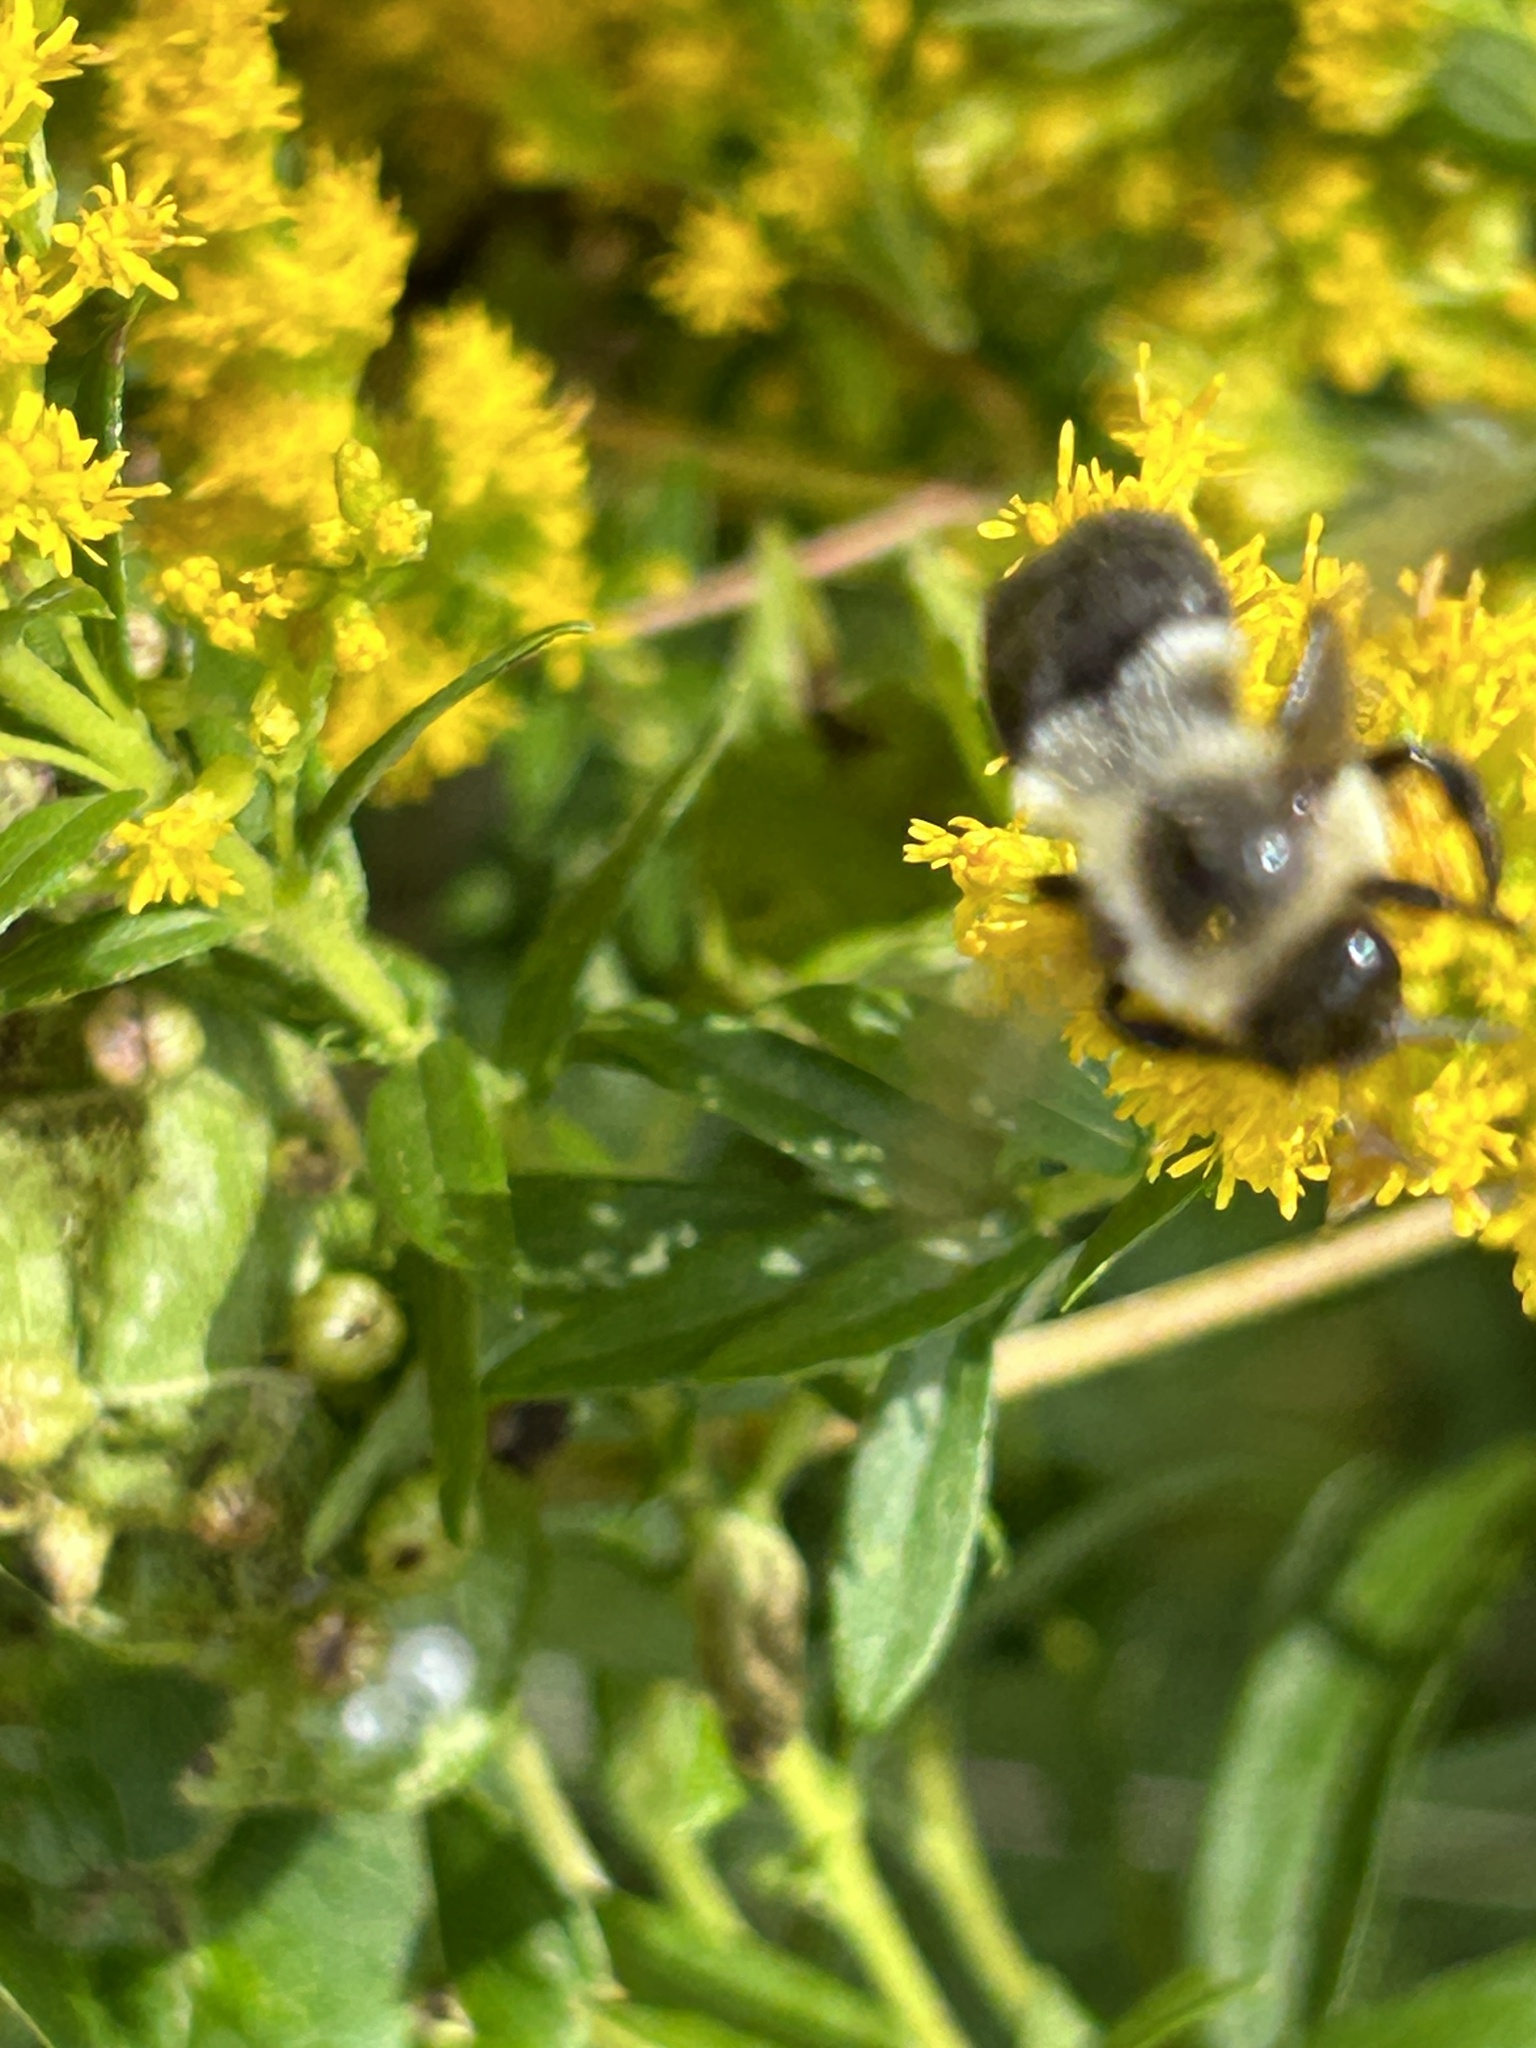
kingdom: Animalia
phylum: Arthropoda
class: Insecta
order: Hymenoptera
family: Apidae
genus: Bombus
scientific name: Bombus impatiens
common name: Common eastern bumble bee
